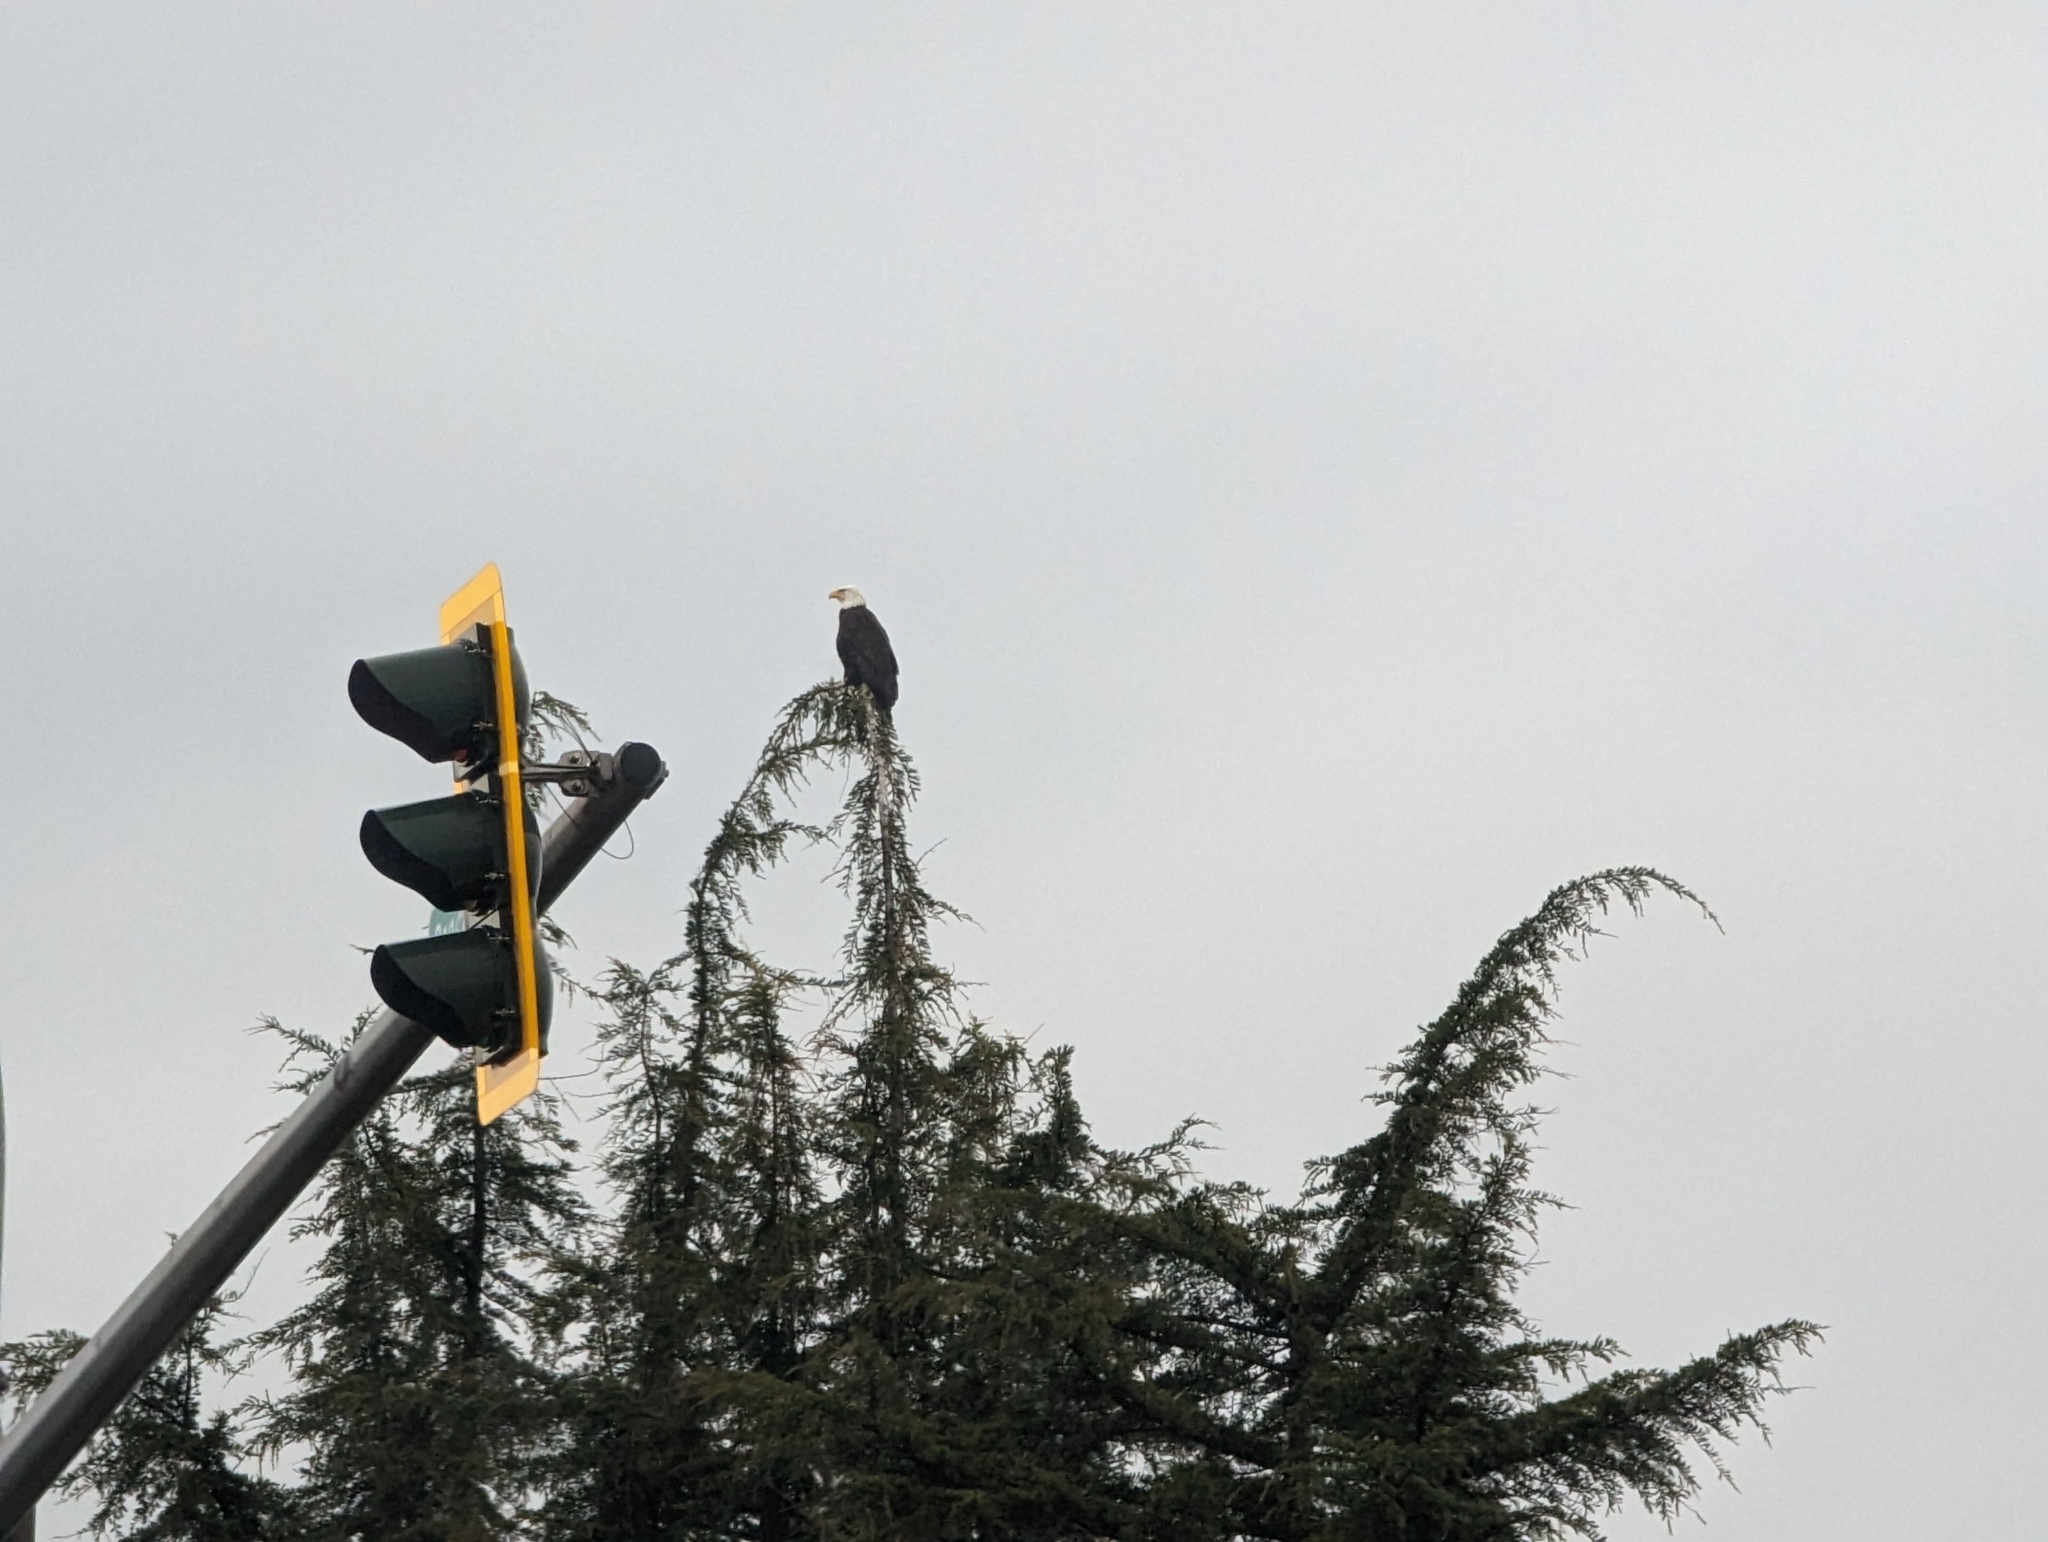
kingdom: Animalia
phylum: Chordata
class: Aves
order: Accipitriformes
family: Accipitridae
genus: Haliaeetus
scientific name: Haliaeetus leucocephalus
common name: Bald eagle
